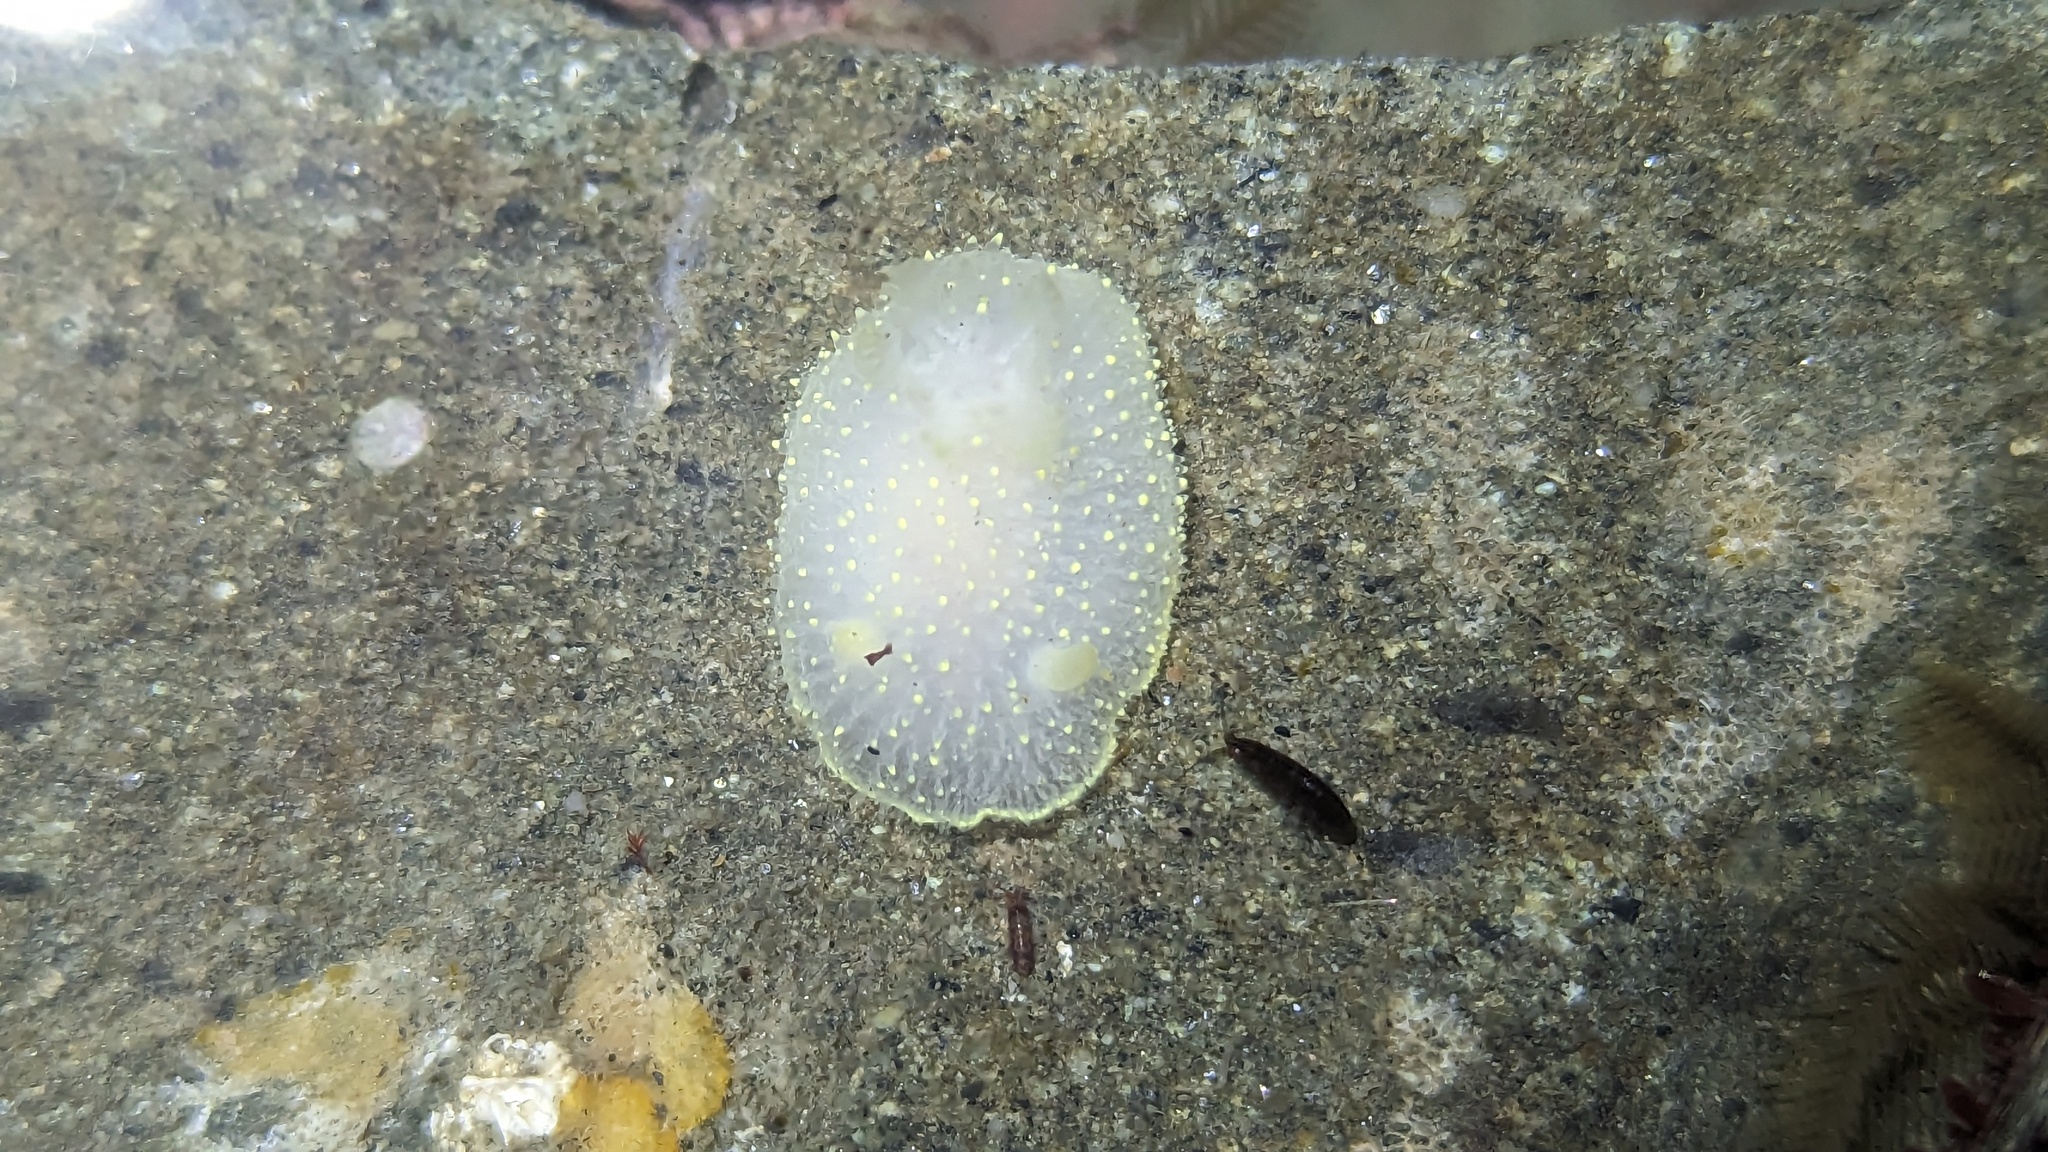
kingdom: Animalia
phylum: Mollusca
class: Gastropoda
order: Nudibranchia
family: Onchidorididae
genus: Acanthodoris
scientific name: Acanthodoris hudsoni
